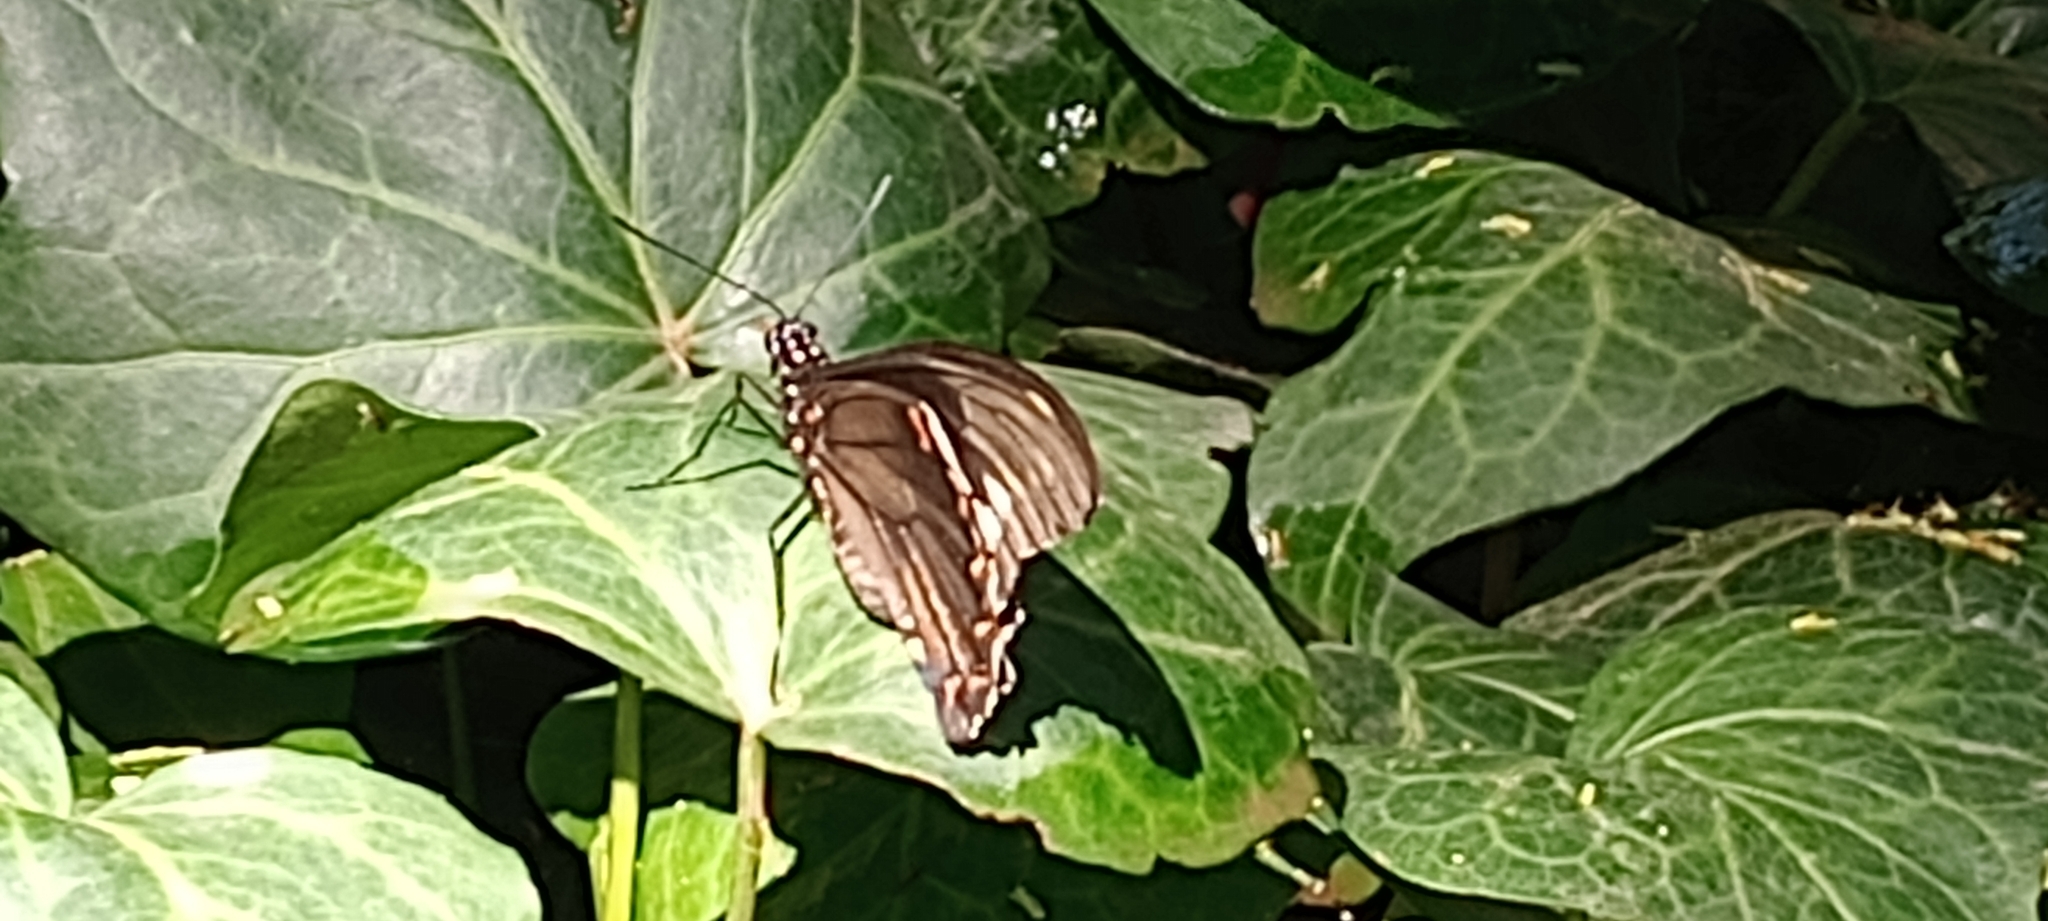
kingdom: Animalia
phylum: Arthropoda
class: Insecta
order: Lepidoptera
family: Papilionidae
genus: Battus
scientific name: Battus polydamas
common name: Polydamas swallowtail
